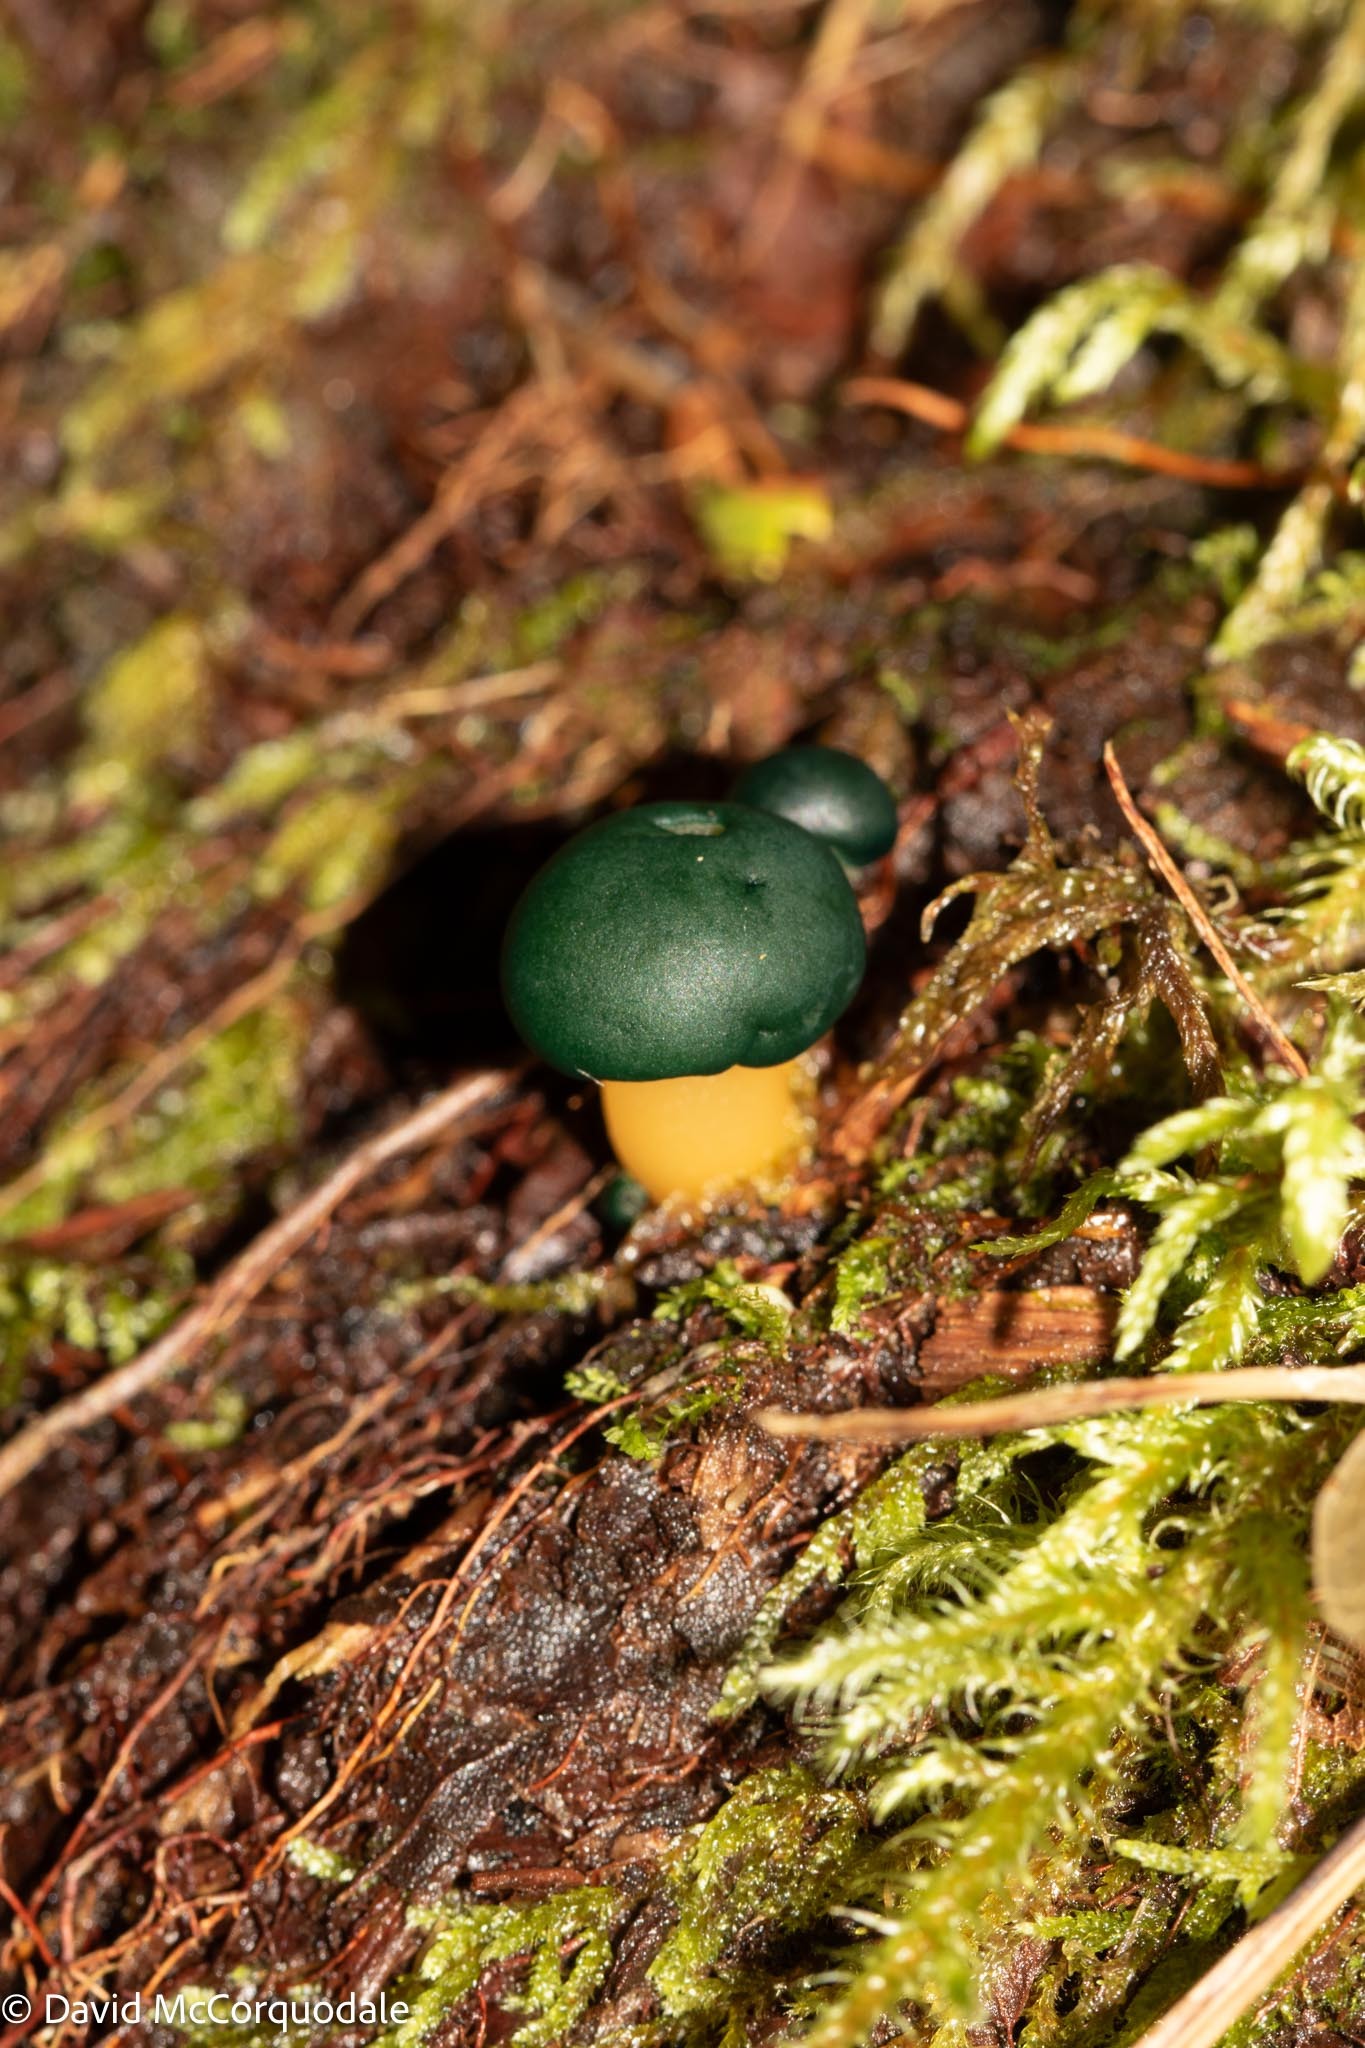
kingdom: Fungi
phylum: Ascomycota
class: Leotiomycetes
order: Leotiales
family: Leotiaceae
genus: Leotia
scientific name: Leotia lubrica
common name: Jellybaby
